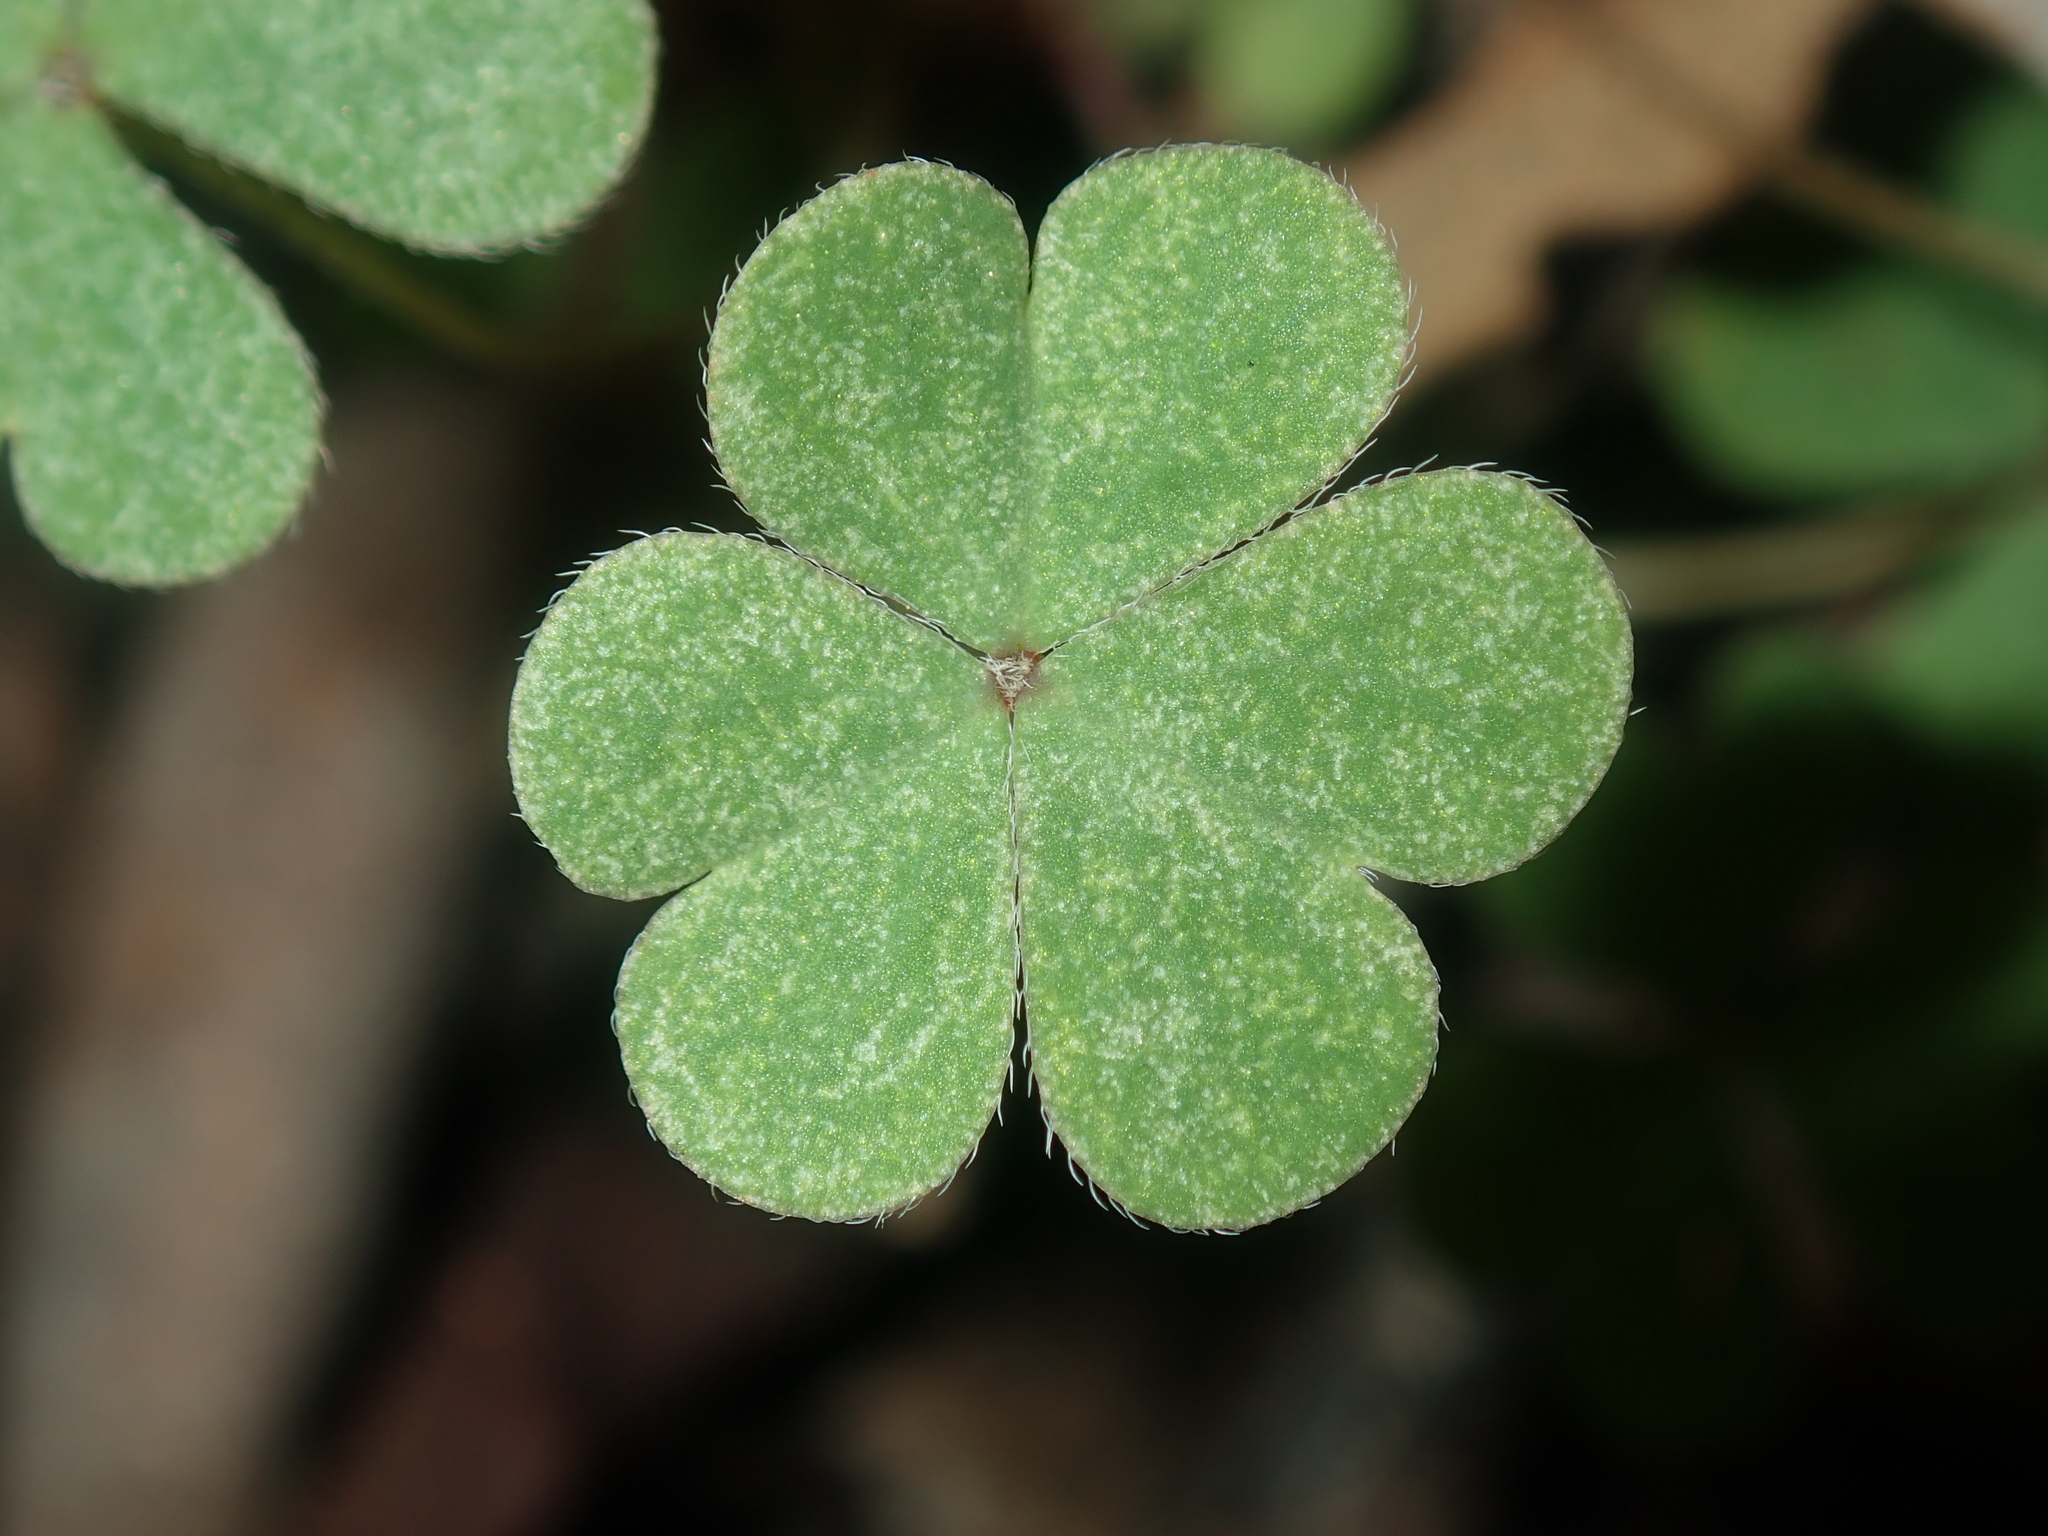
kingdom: Plantae
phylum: Tracheophyta
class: Magnoliopsida
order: Oxalidales
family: Oxalidaceae
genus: Oxalis
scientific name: Oxalis exilis
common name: Least yellow-sorrel
